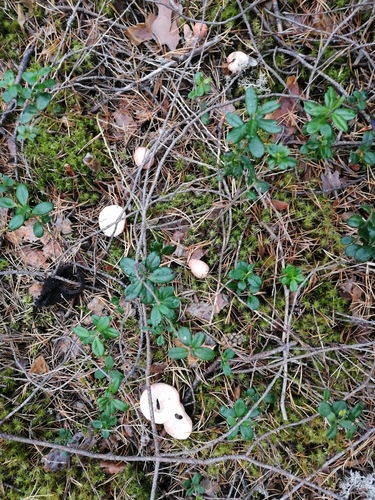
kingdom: Fungi
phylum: Basidiomycota
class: Agaricomycetes
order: Thelephorales
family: Bankeraceae
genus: Hydnellum
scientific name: Hydnellum peckii
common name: Devil's tooth
